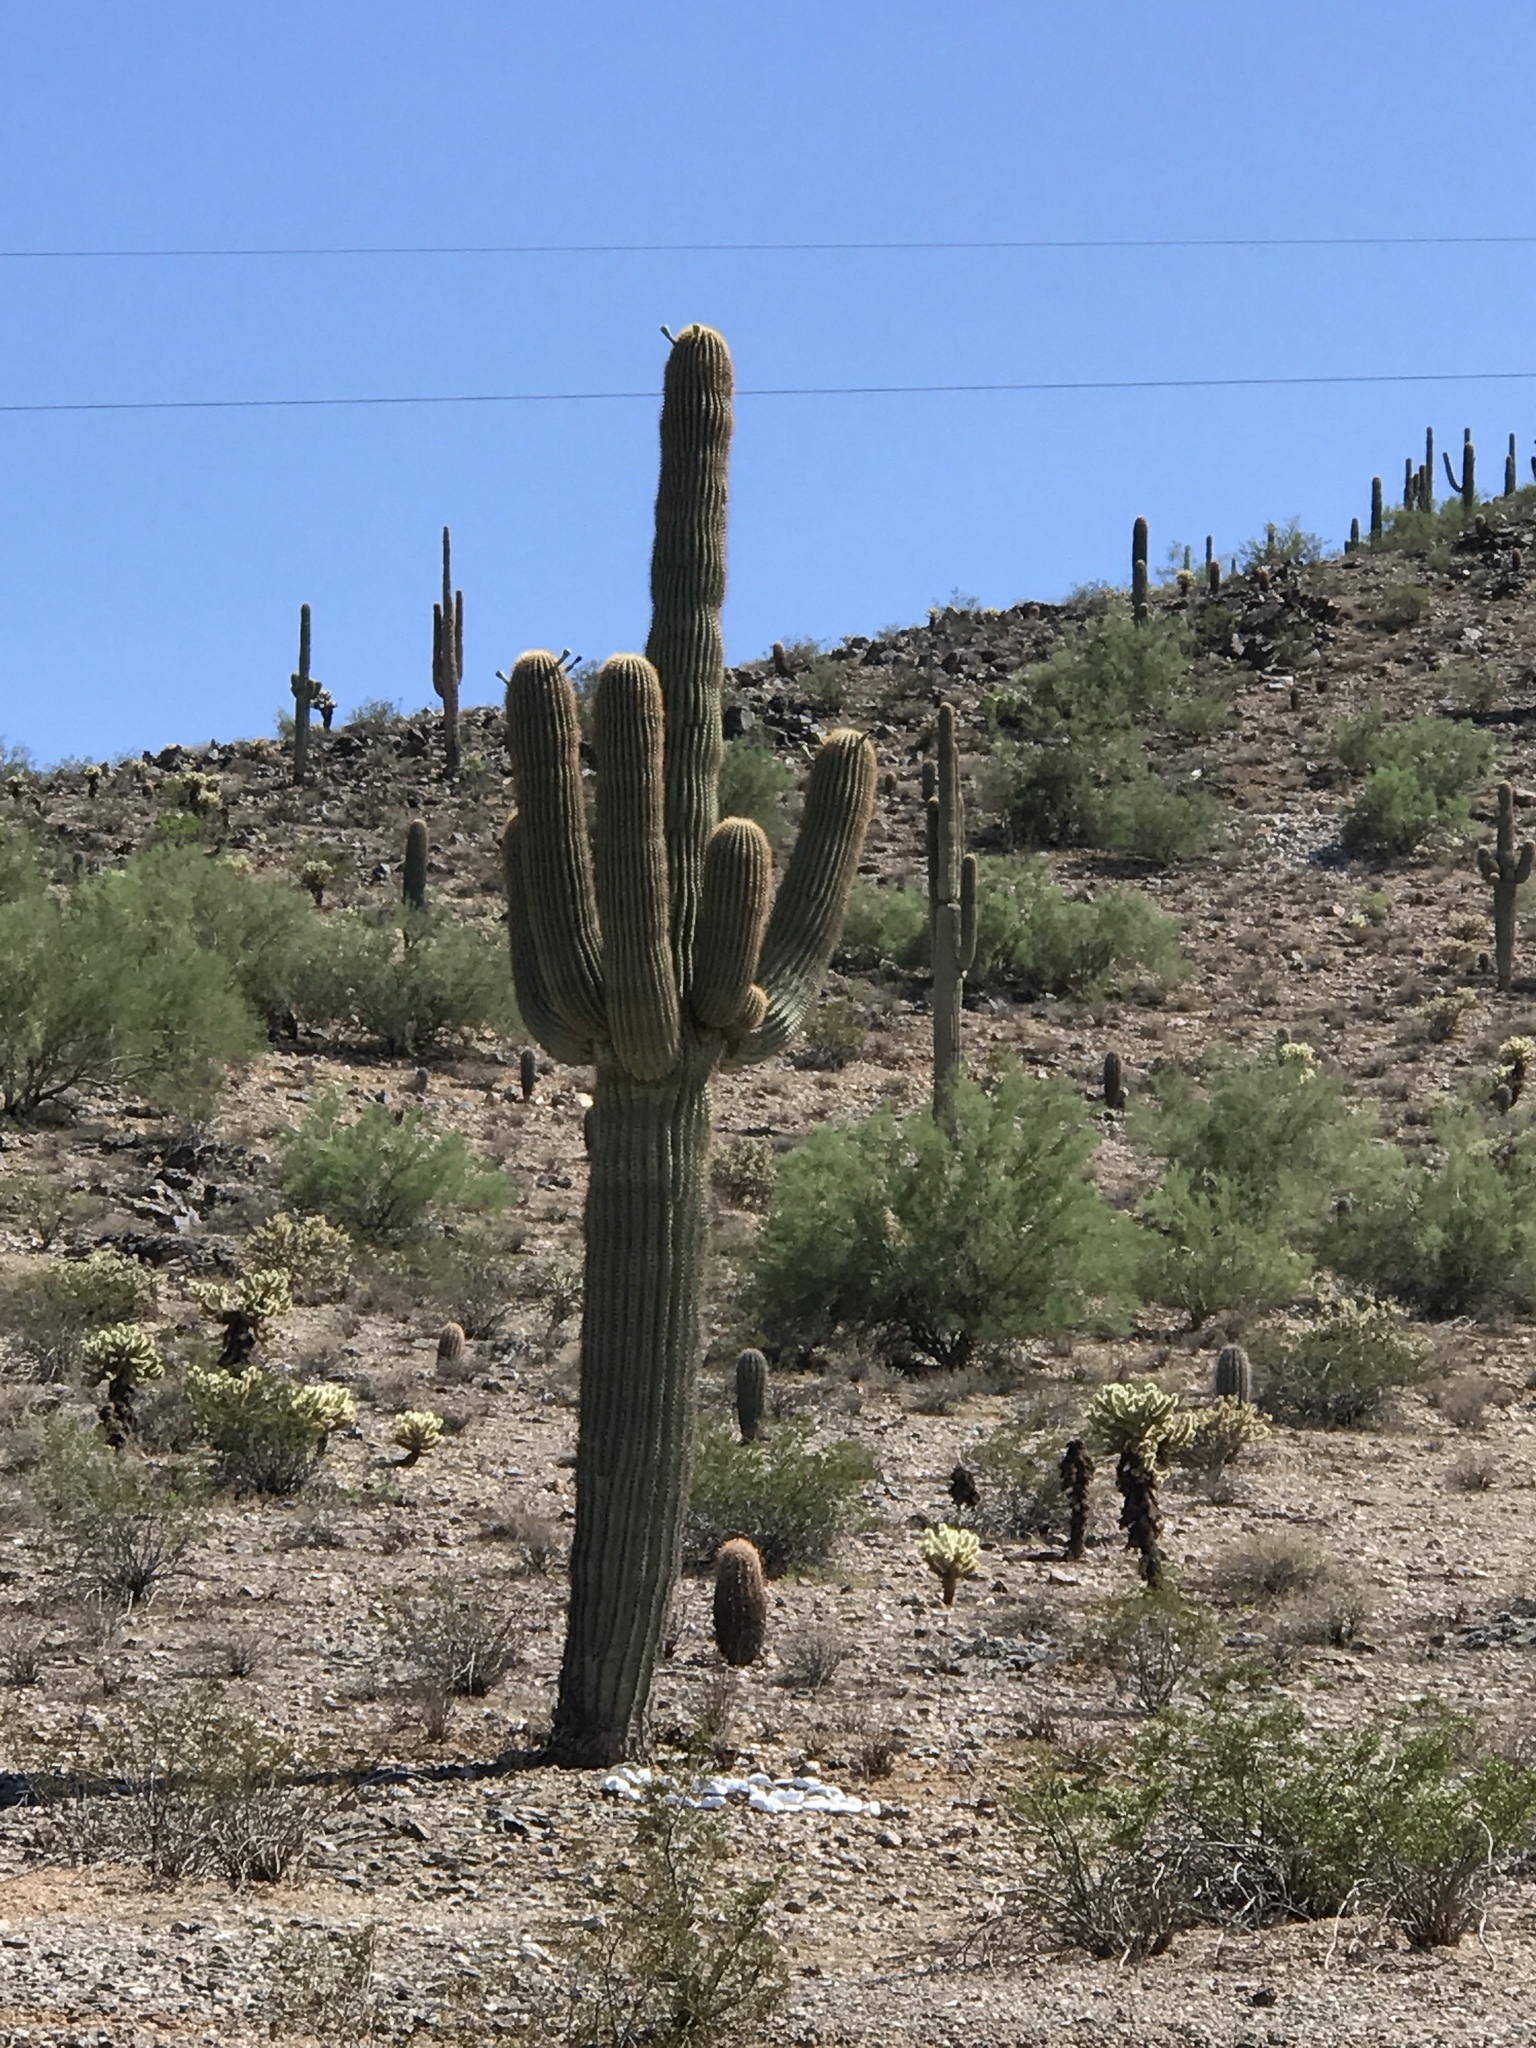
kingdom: Plantae
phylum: Tracheophyta
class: Magnoliopsida
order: Caryophyllales
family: Cactaceae
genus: Carnegiea
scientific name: Carnegiea gigantea
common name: Saguaro
